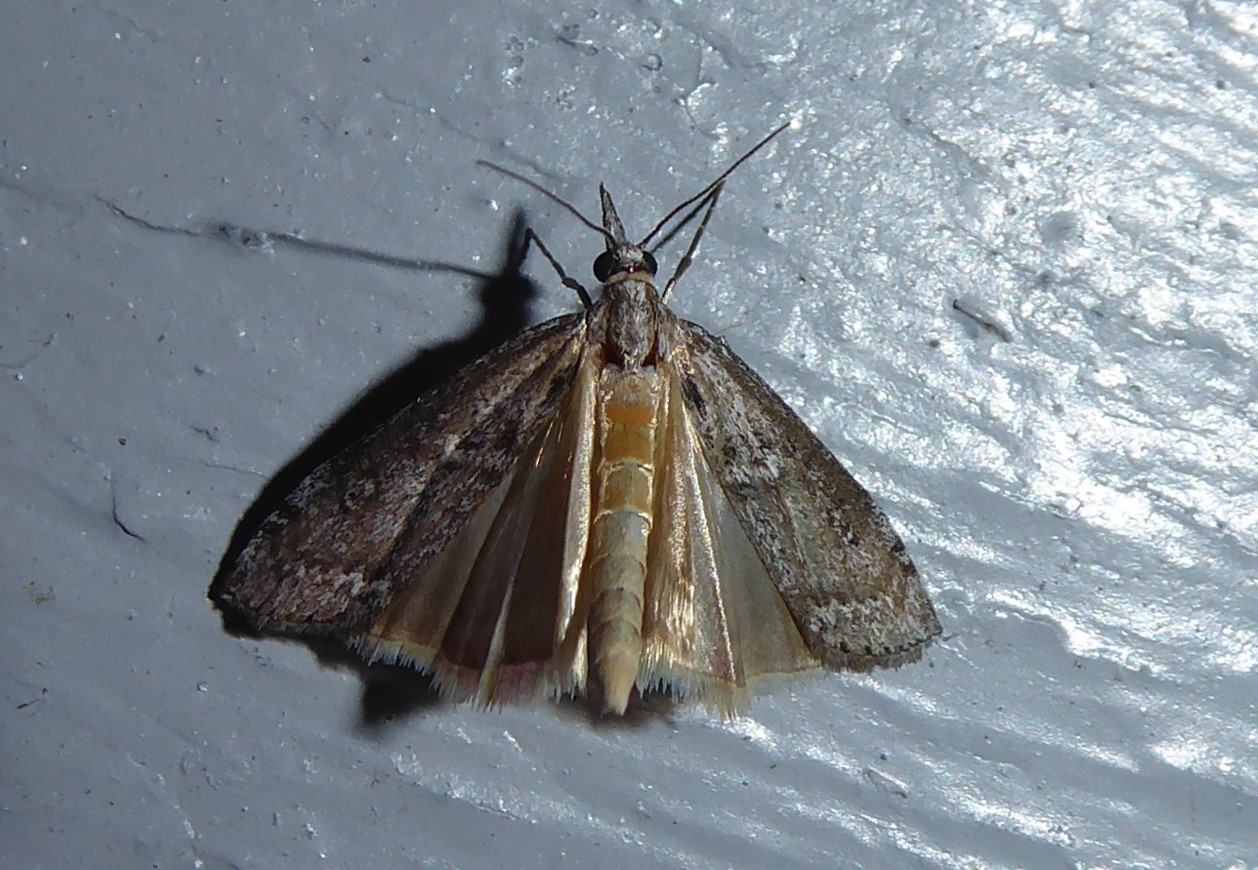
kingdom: Animalia
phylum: Arthropoda
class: Insecta
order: Lepidoptera
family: Crambidae
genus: Orocrambus
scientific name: Orocrambus cyclopicus
